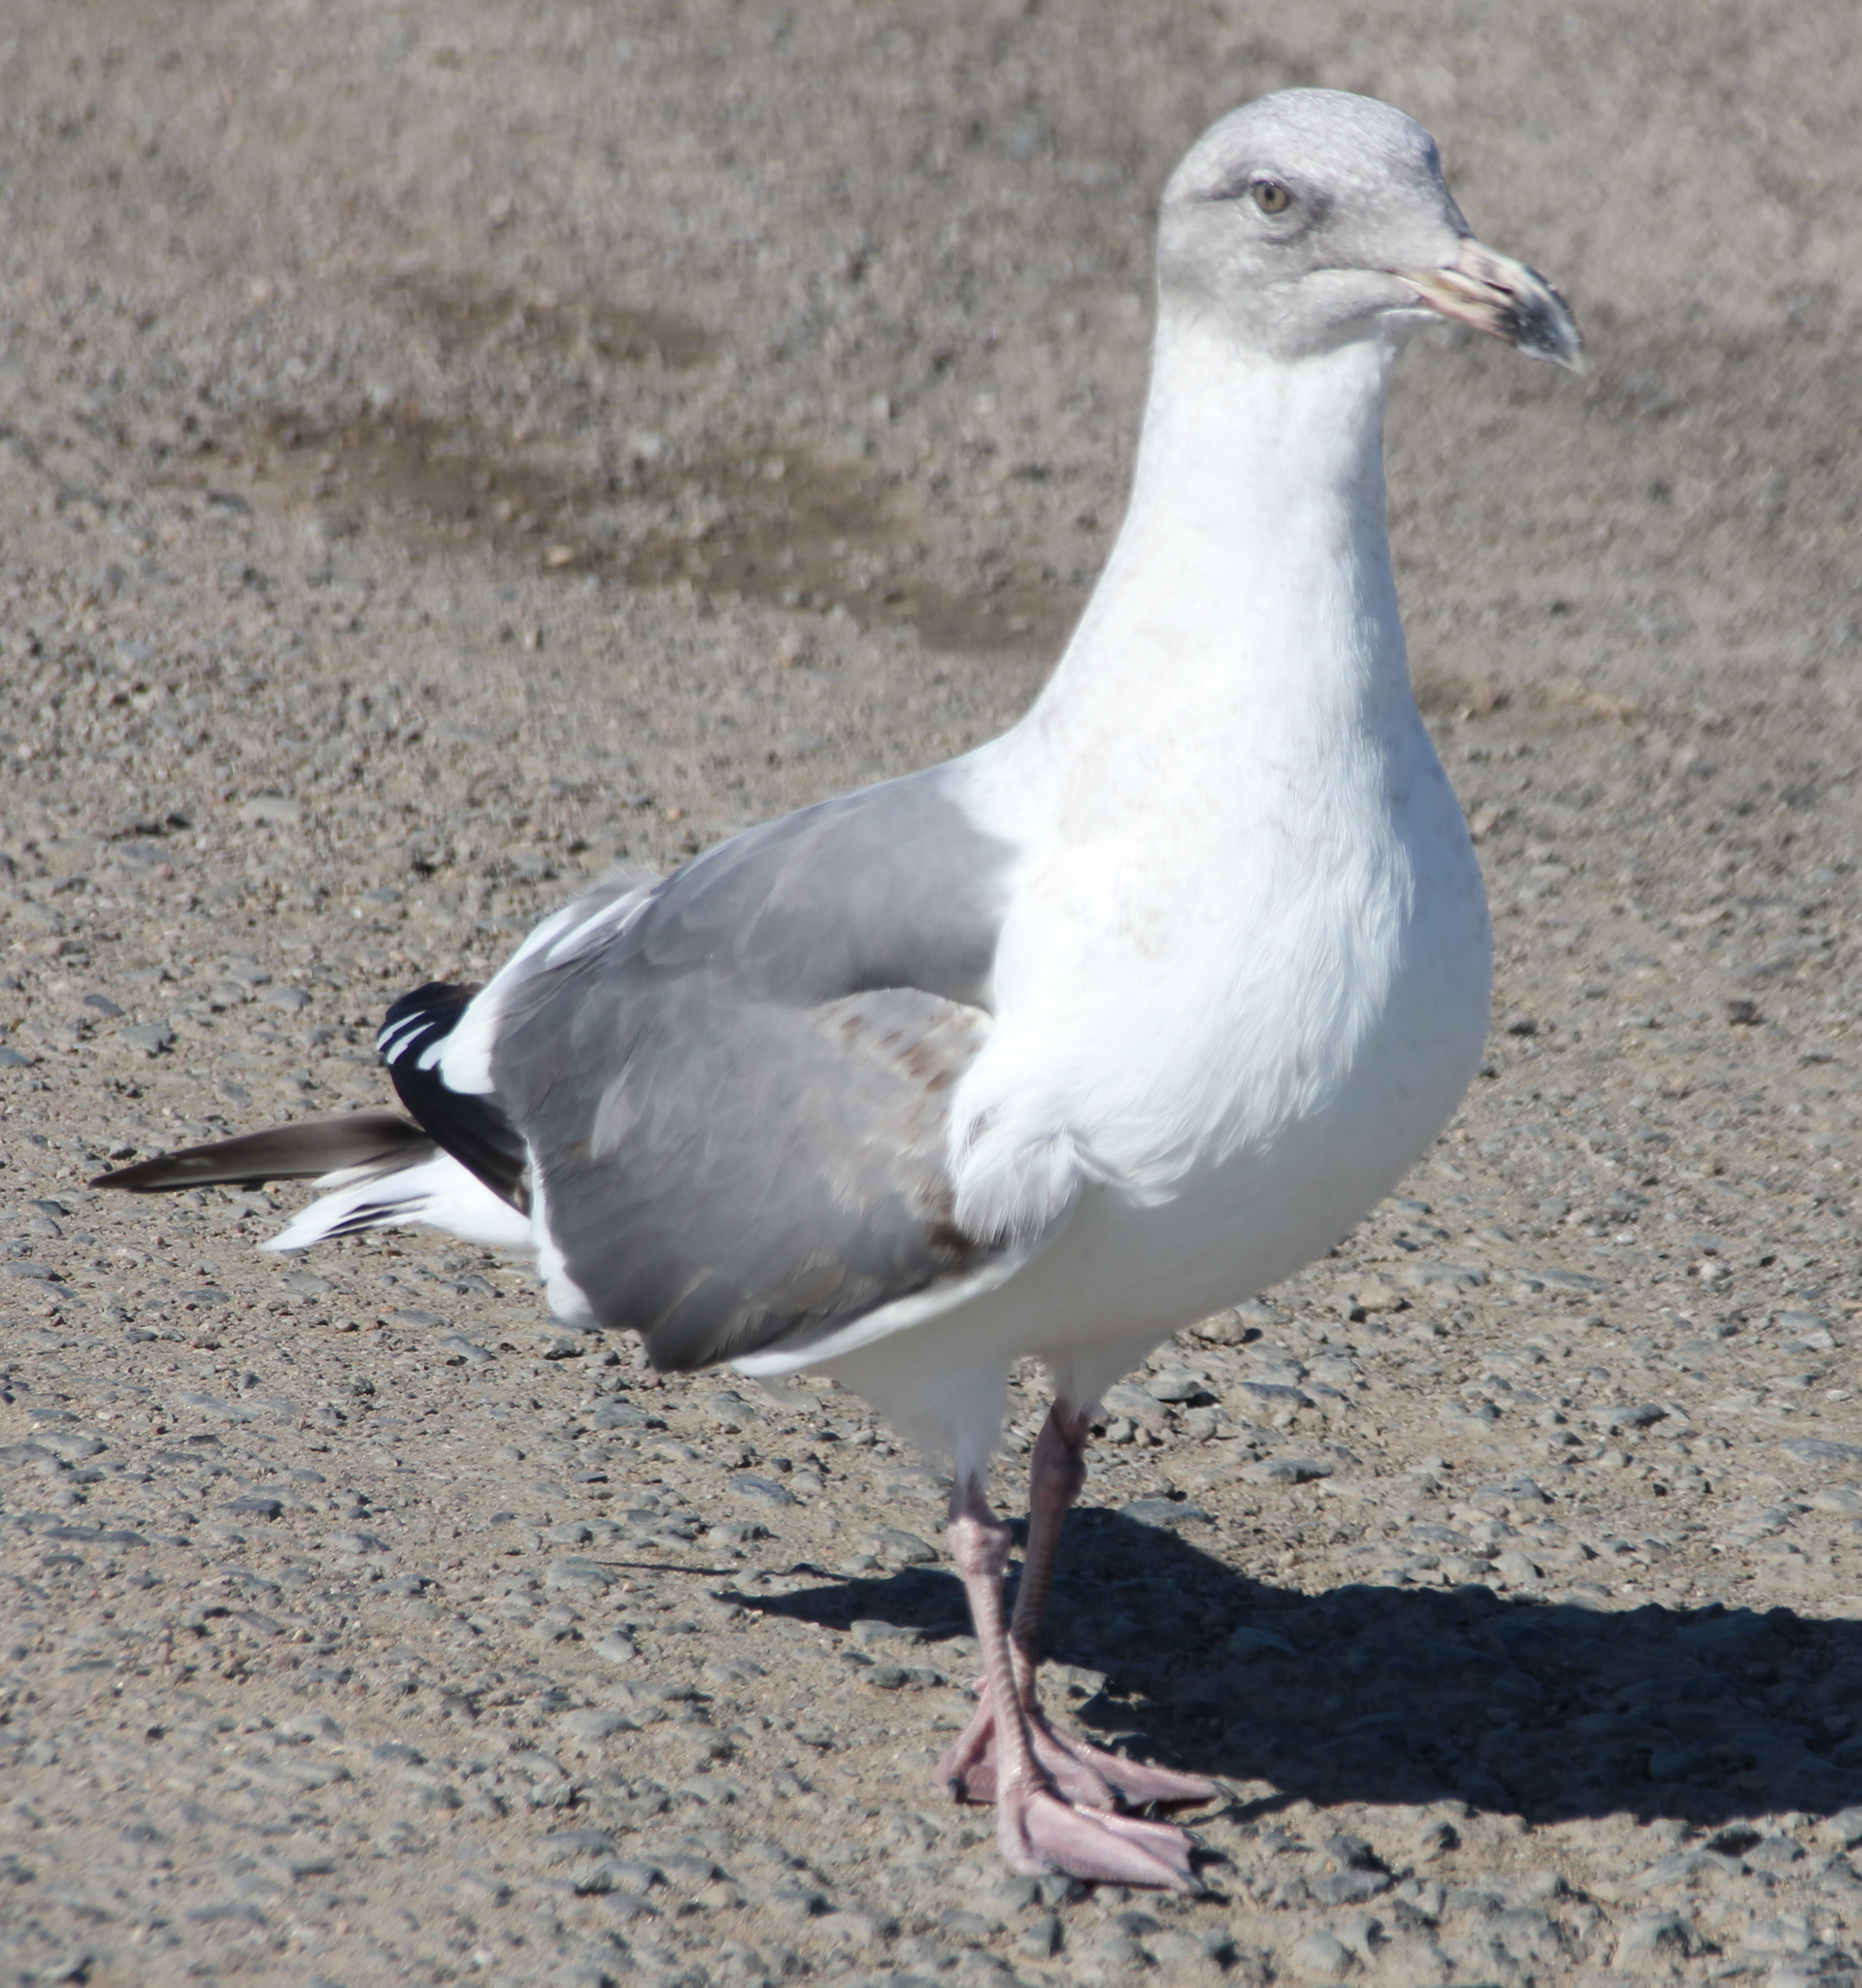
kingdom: Animalia
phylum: Chordata
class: Aves
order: Charadriiformes
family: Laridae
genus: Larus
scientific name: Larus occidentalis
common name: Western gull
